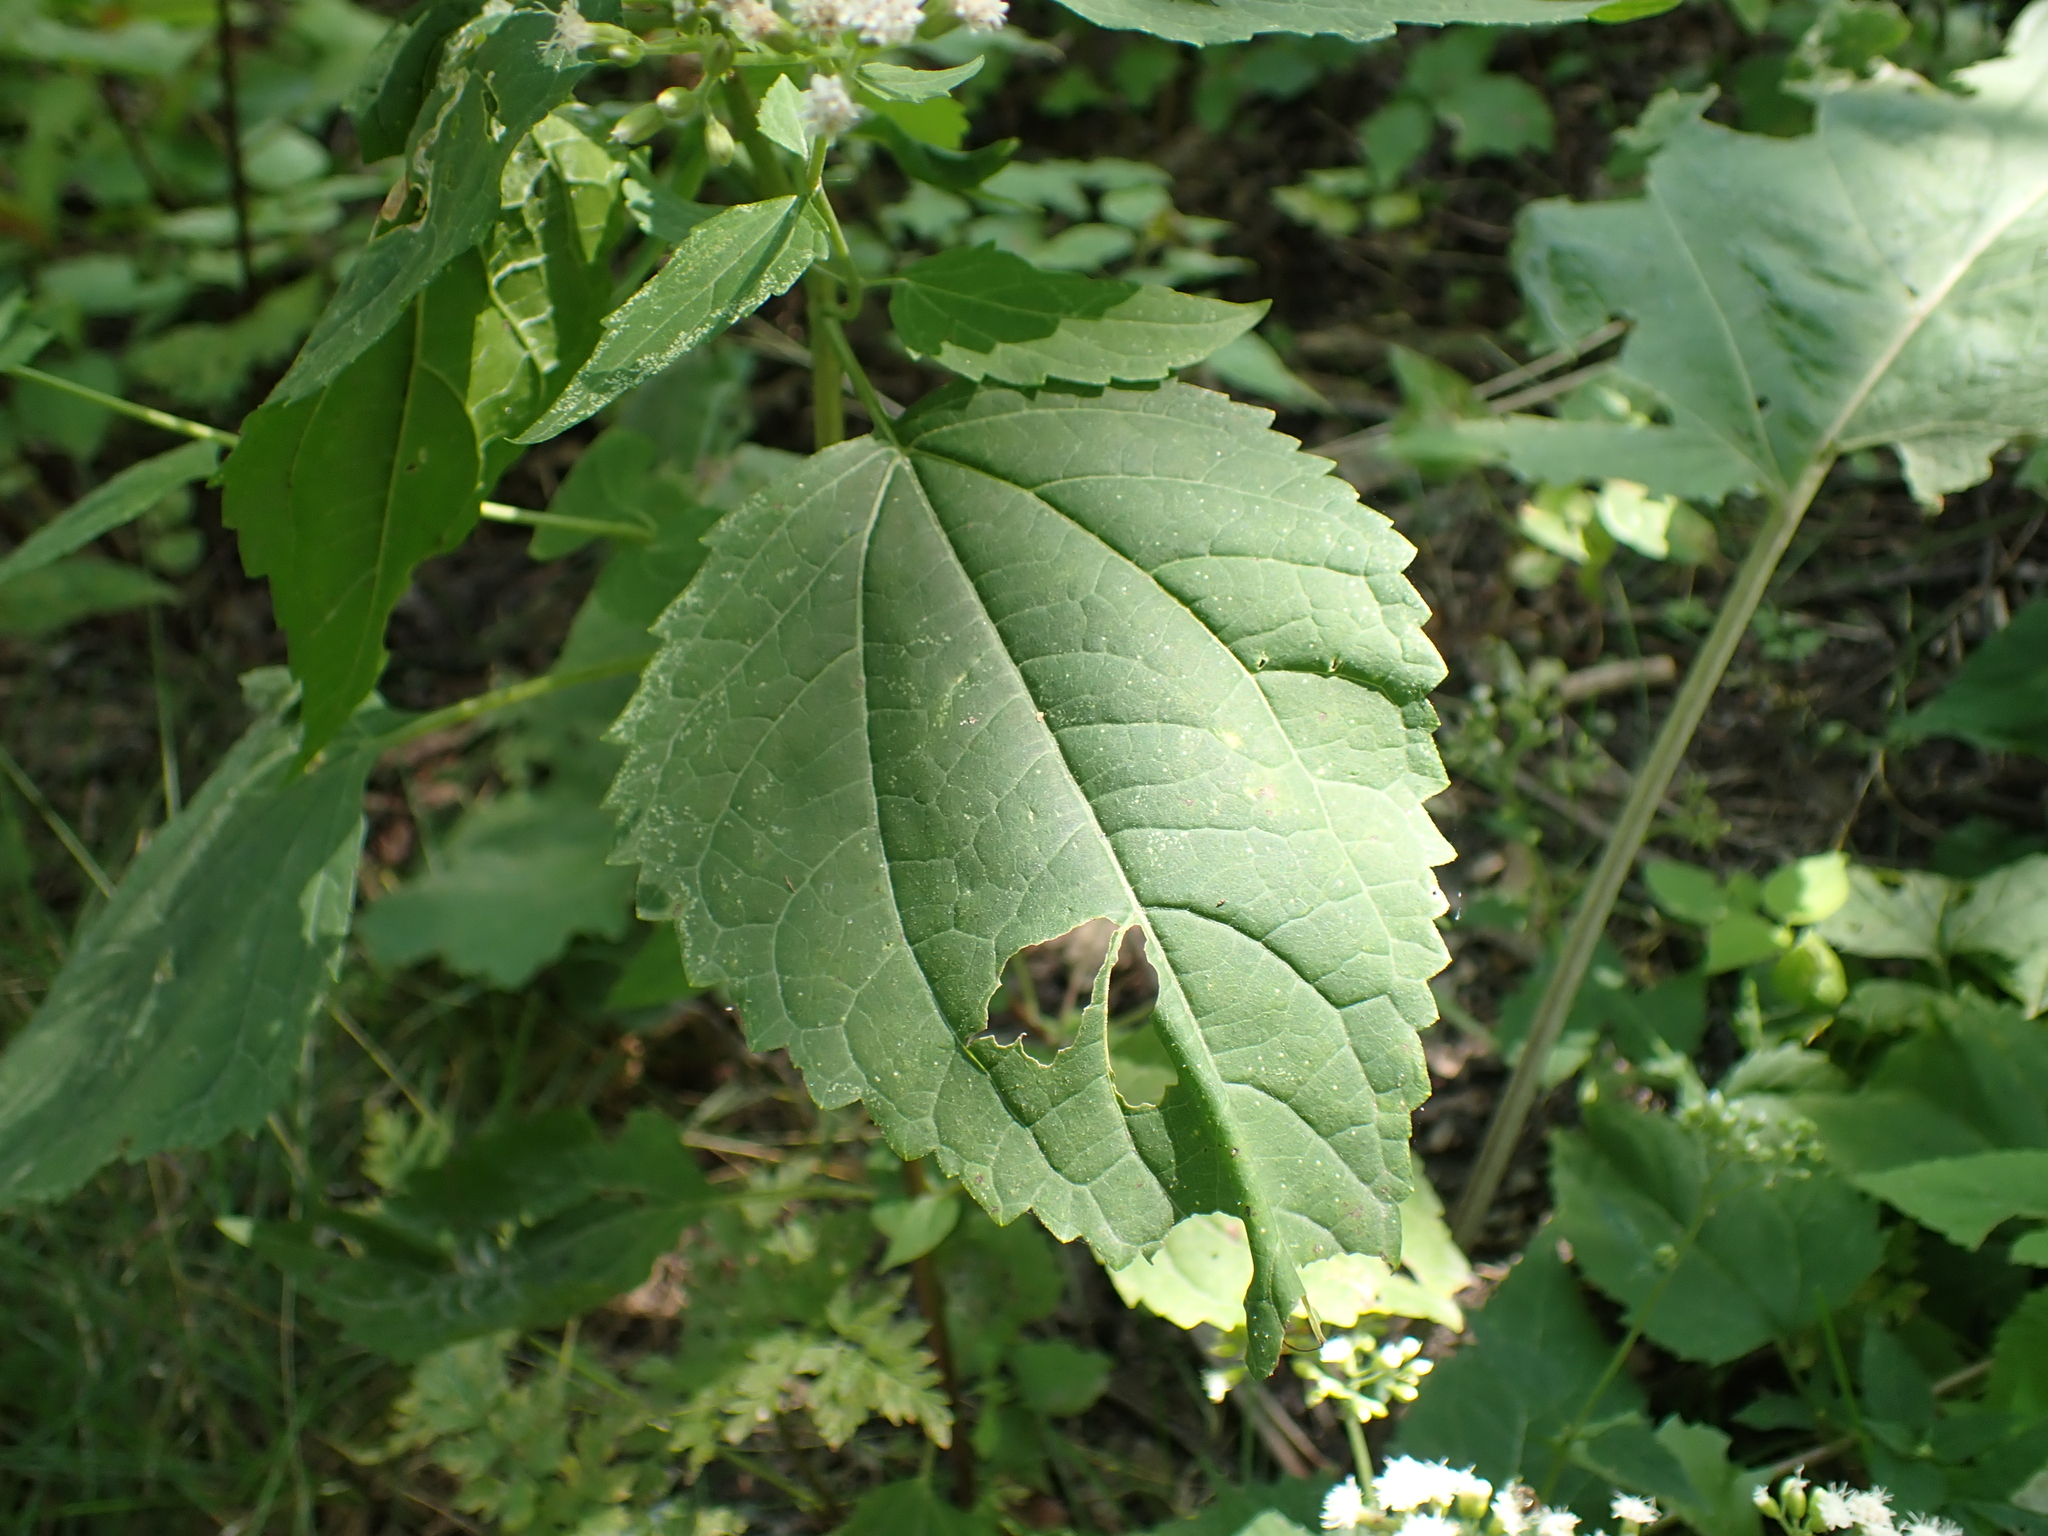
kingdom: Plantae
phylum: Tracheophyta
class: Magnoliopsida
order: Asterales
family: Asteraceae
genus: Ageratina
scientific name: Ageratina altissima
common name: White snakeroot
